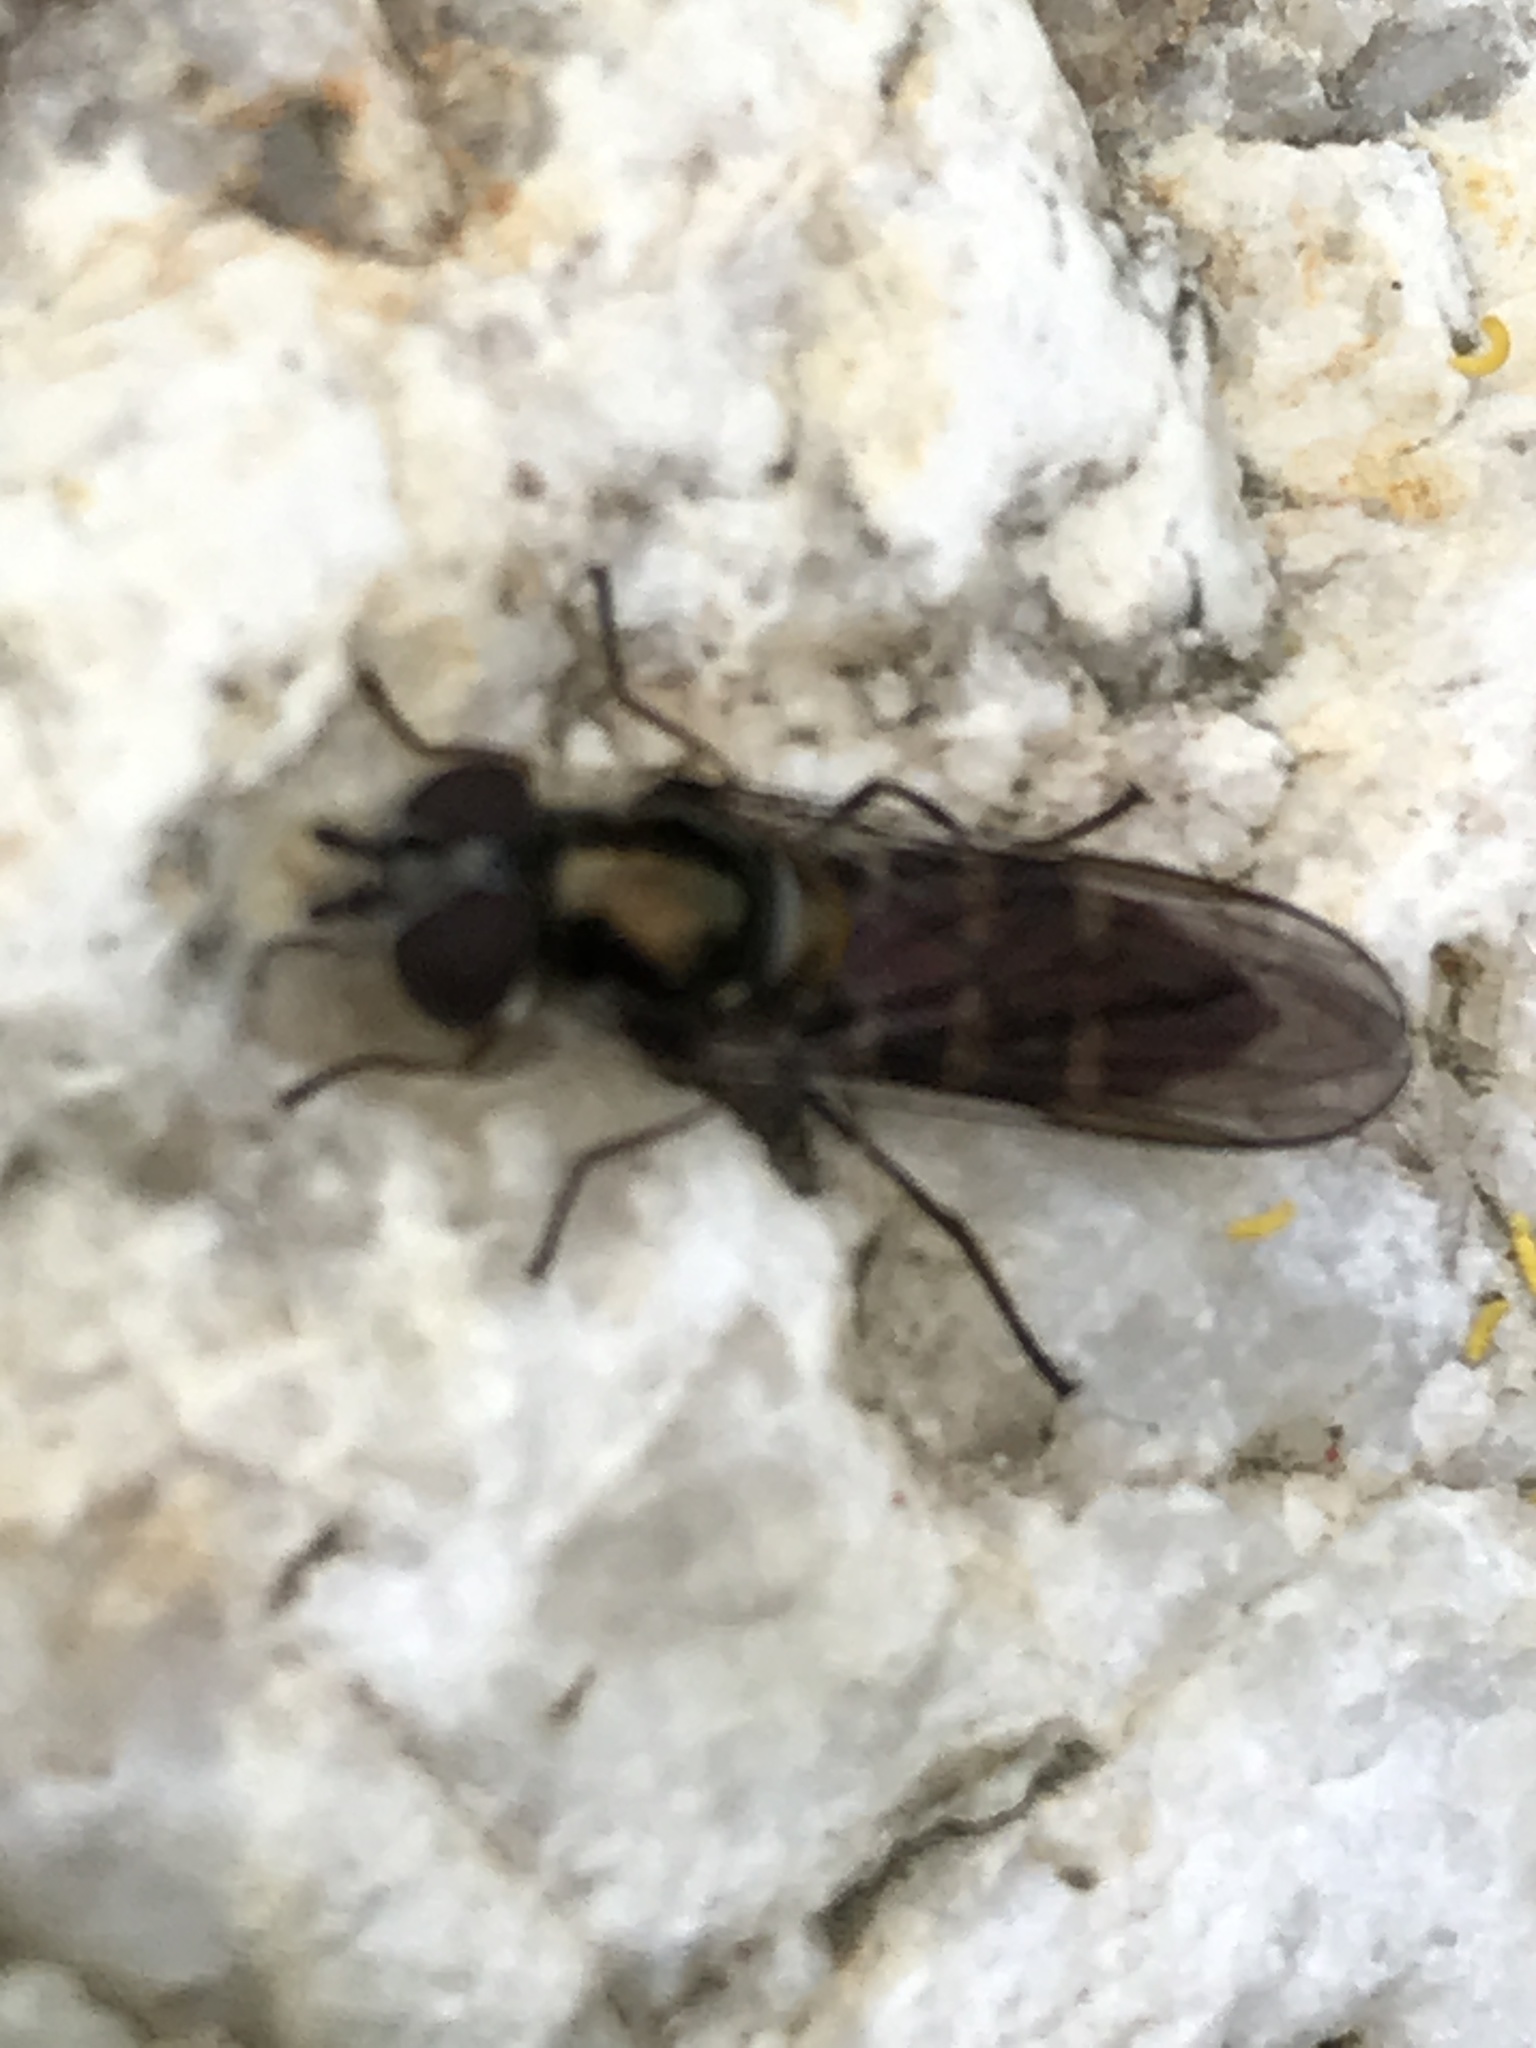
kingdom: Animalia
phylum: Arthropoda
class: Insecta
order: Diptera
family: Syrphidae
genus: Melangyna
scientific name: Melangyna novaezelandiae
